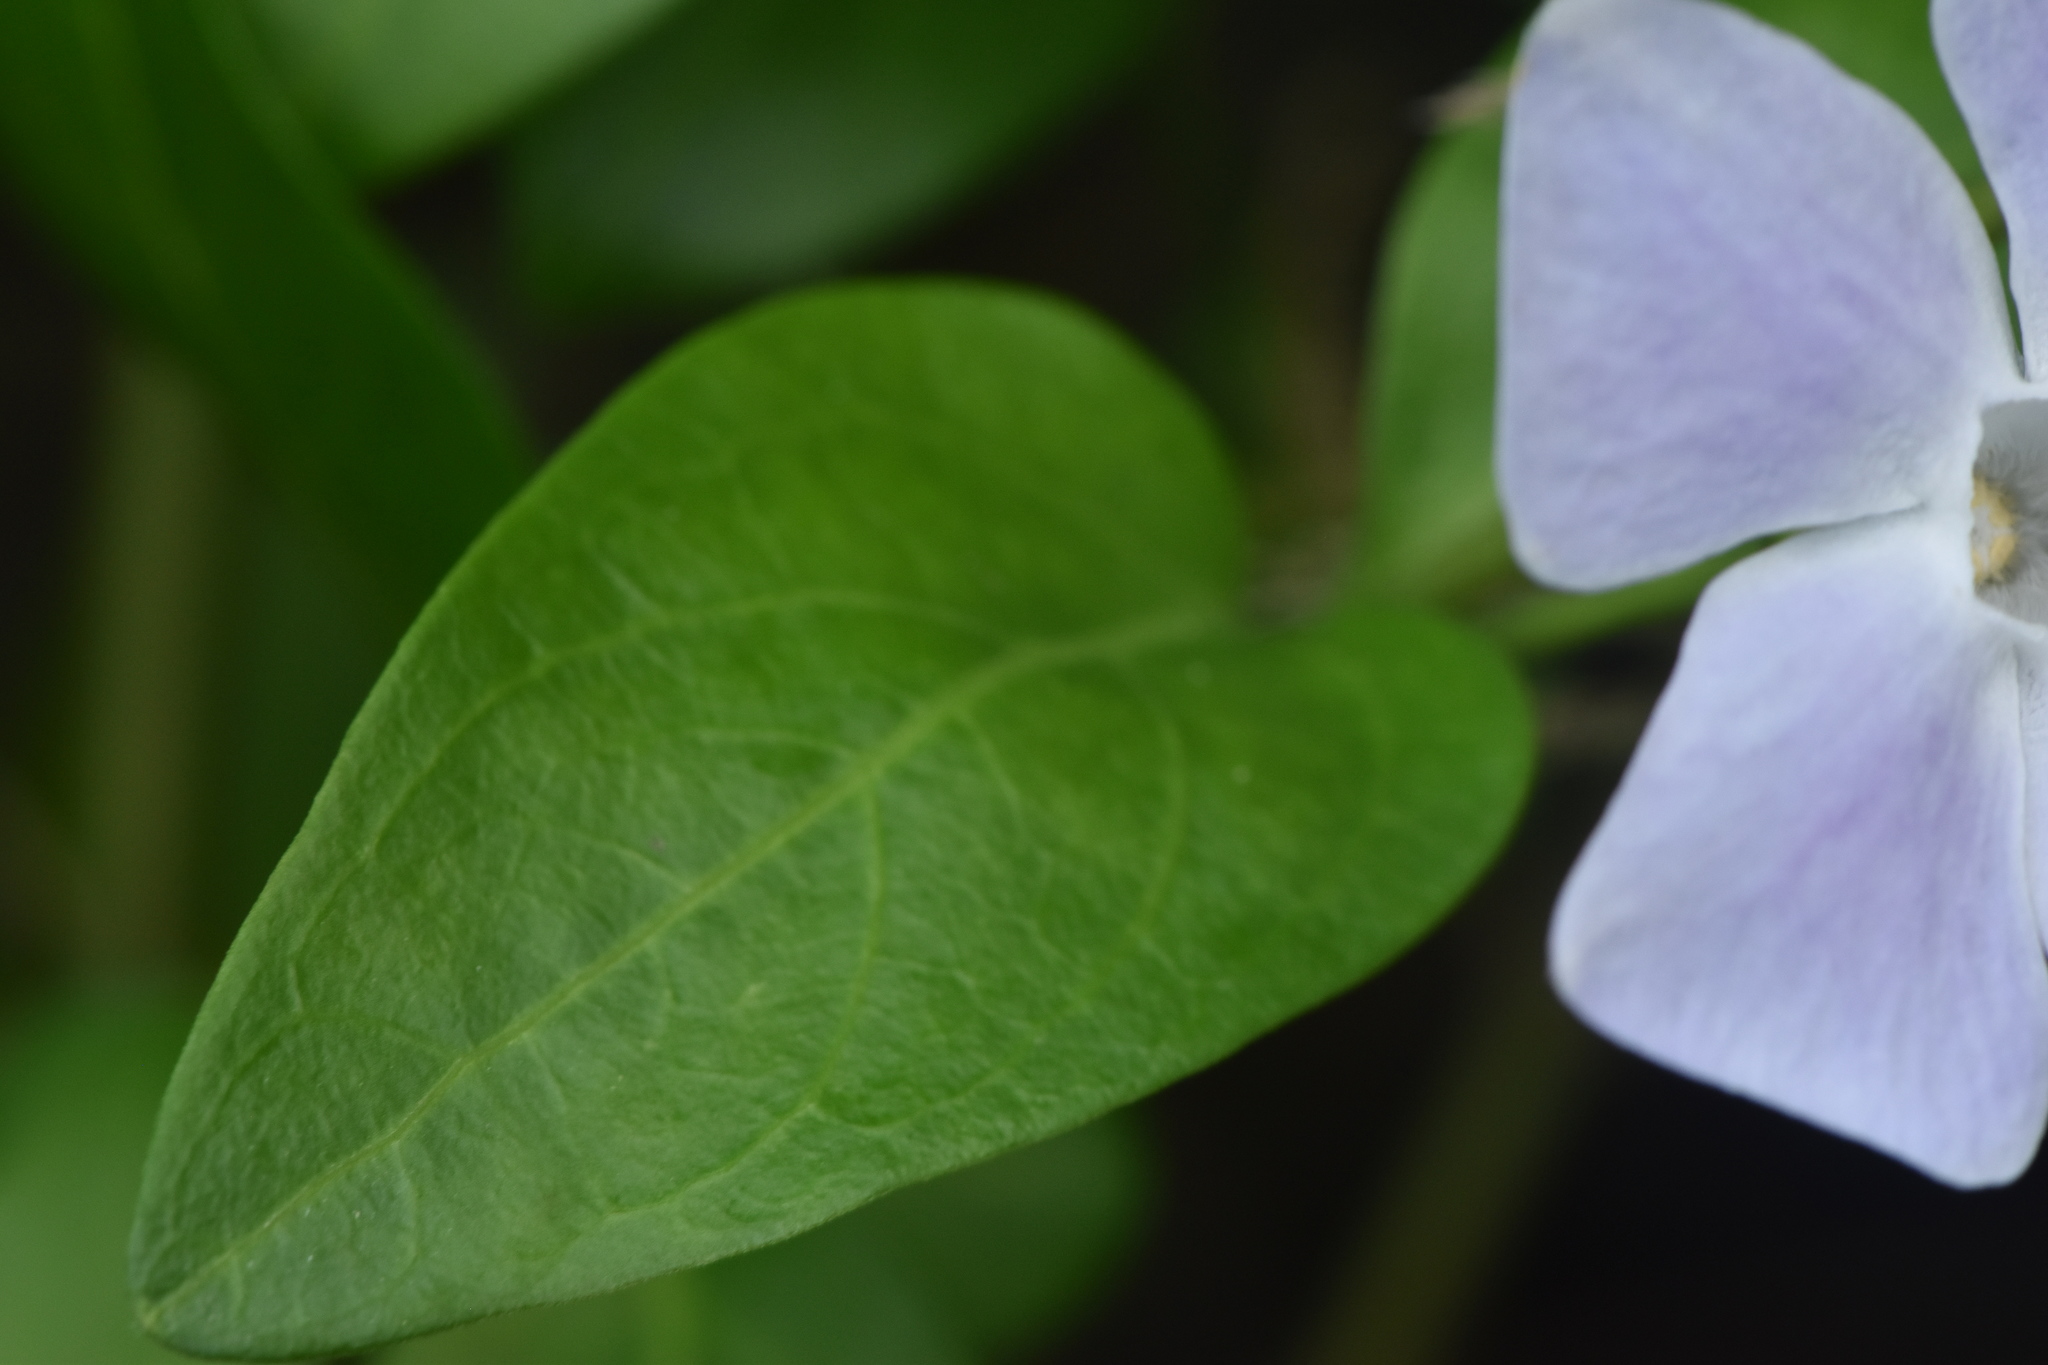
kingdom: Plantae
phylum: Tracheophyta
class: Magnoliopsida
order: Gentianales
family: Apocynaceae
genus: Vinca
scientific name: Vinca difformis
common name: Intermediate periwinkle
